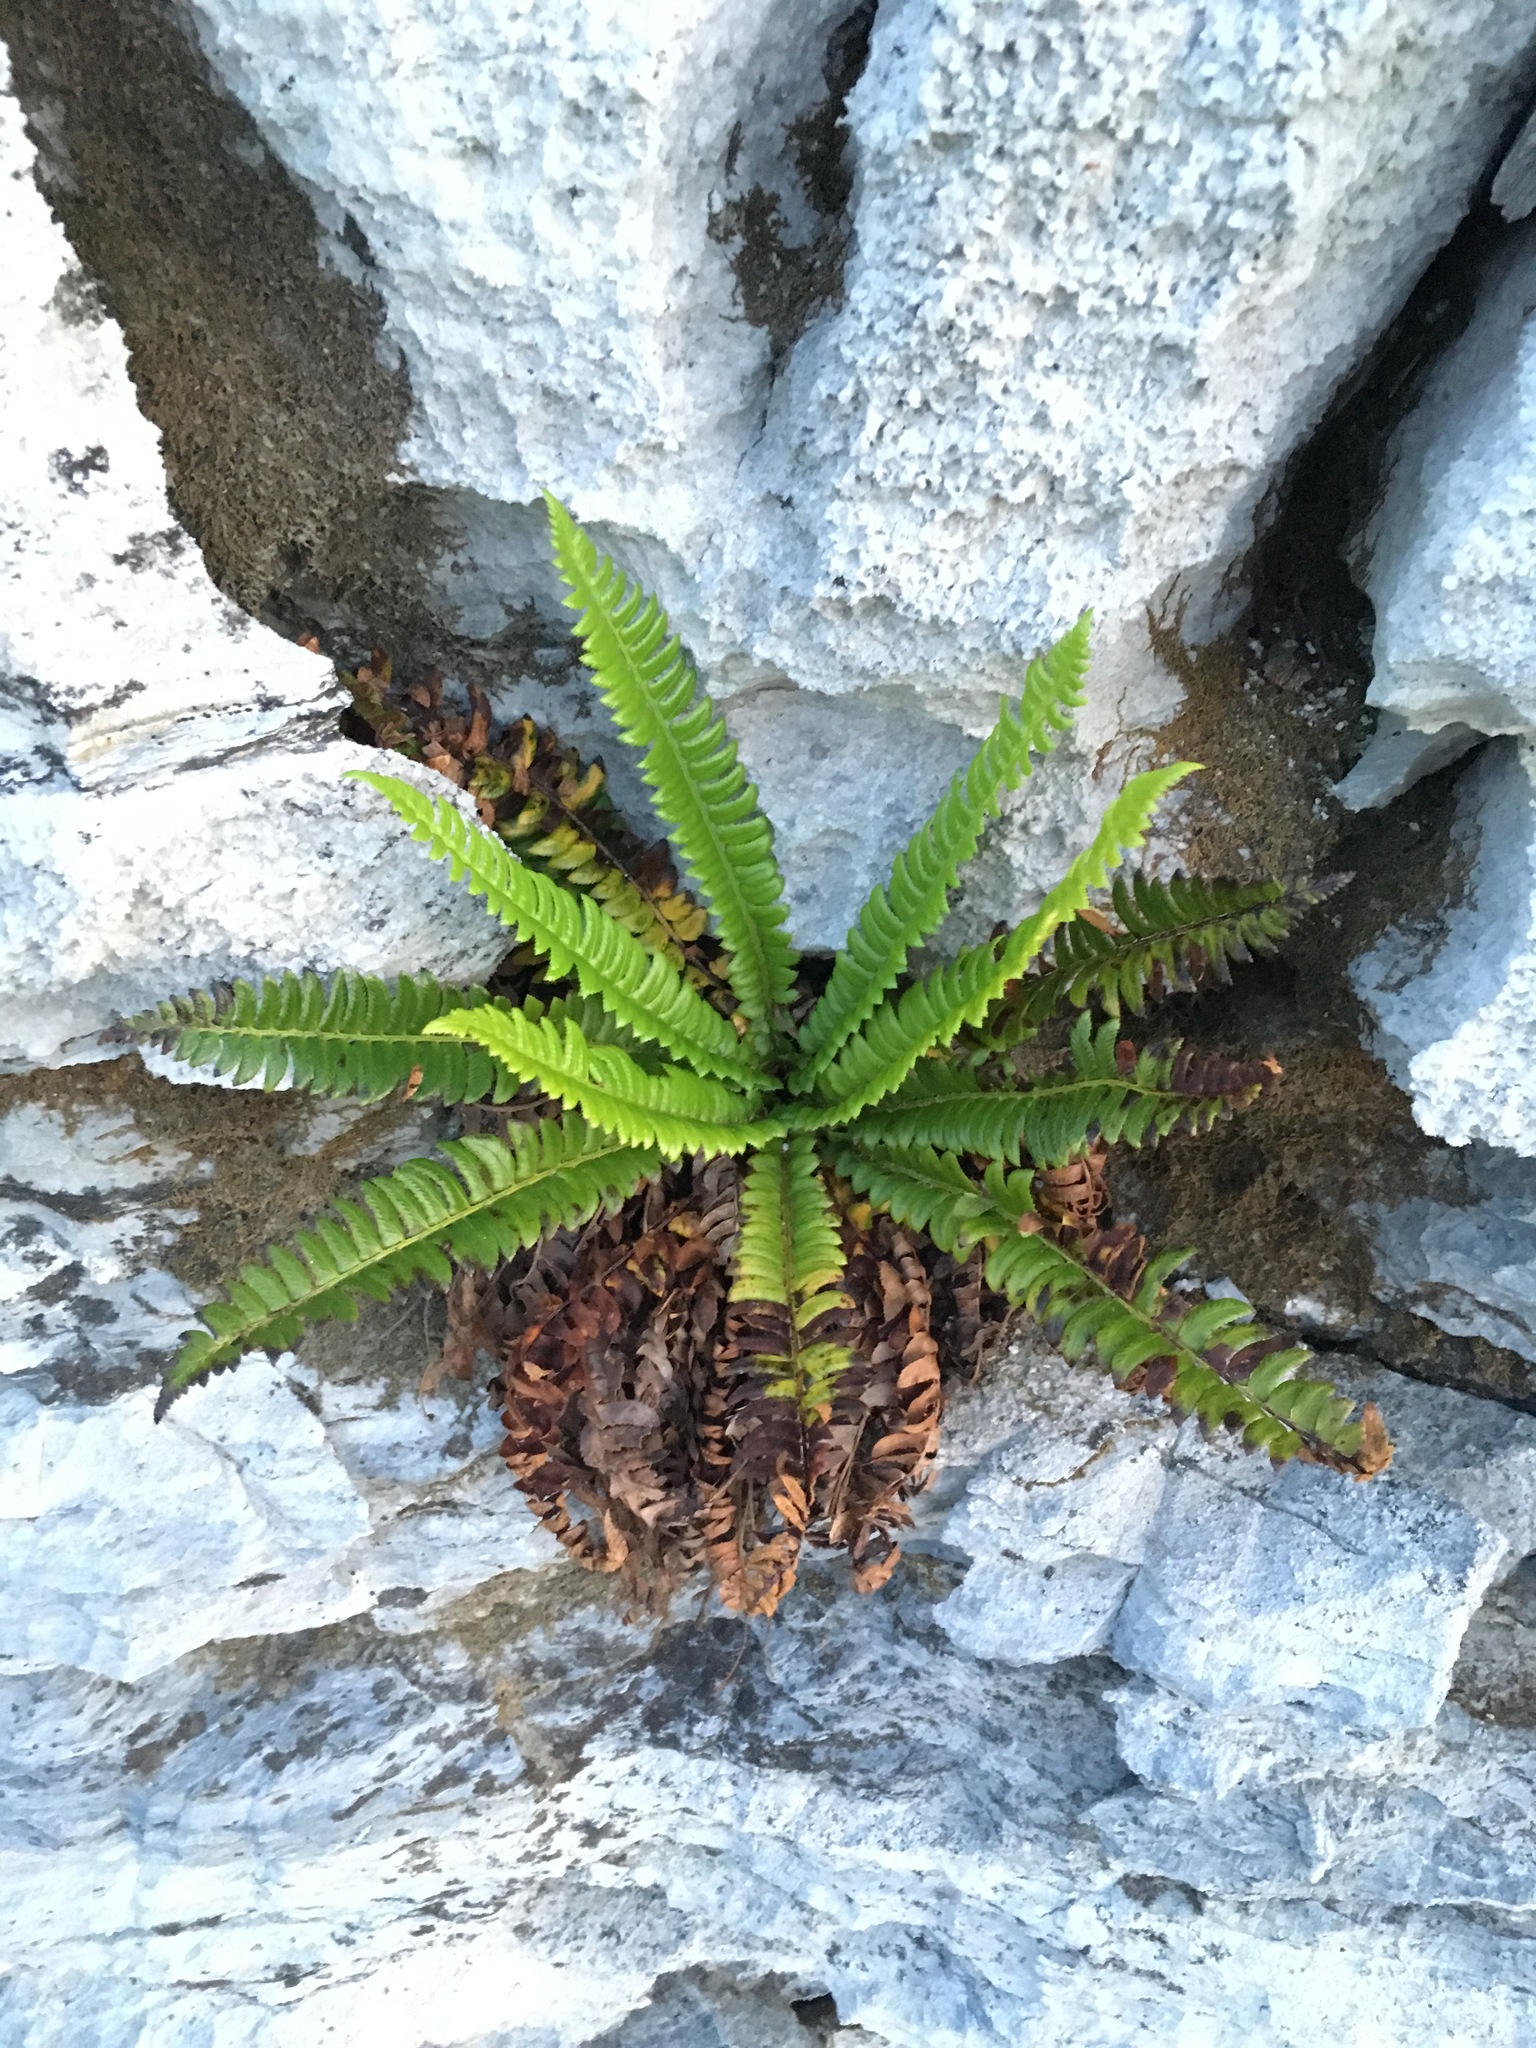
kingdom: Plantae
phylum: Tracheophyta
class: Polypodiopsida
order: Polypodiales
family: Dryopteridaceae
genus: Polystichum
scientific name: Polystichum lonchitis
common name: Holly fern
